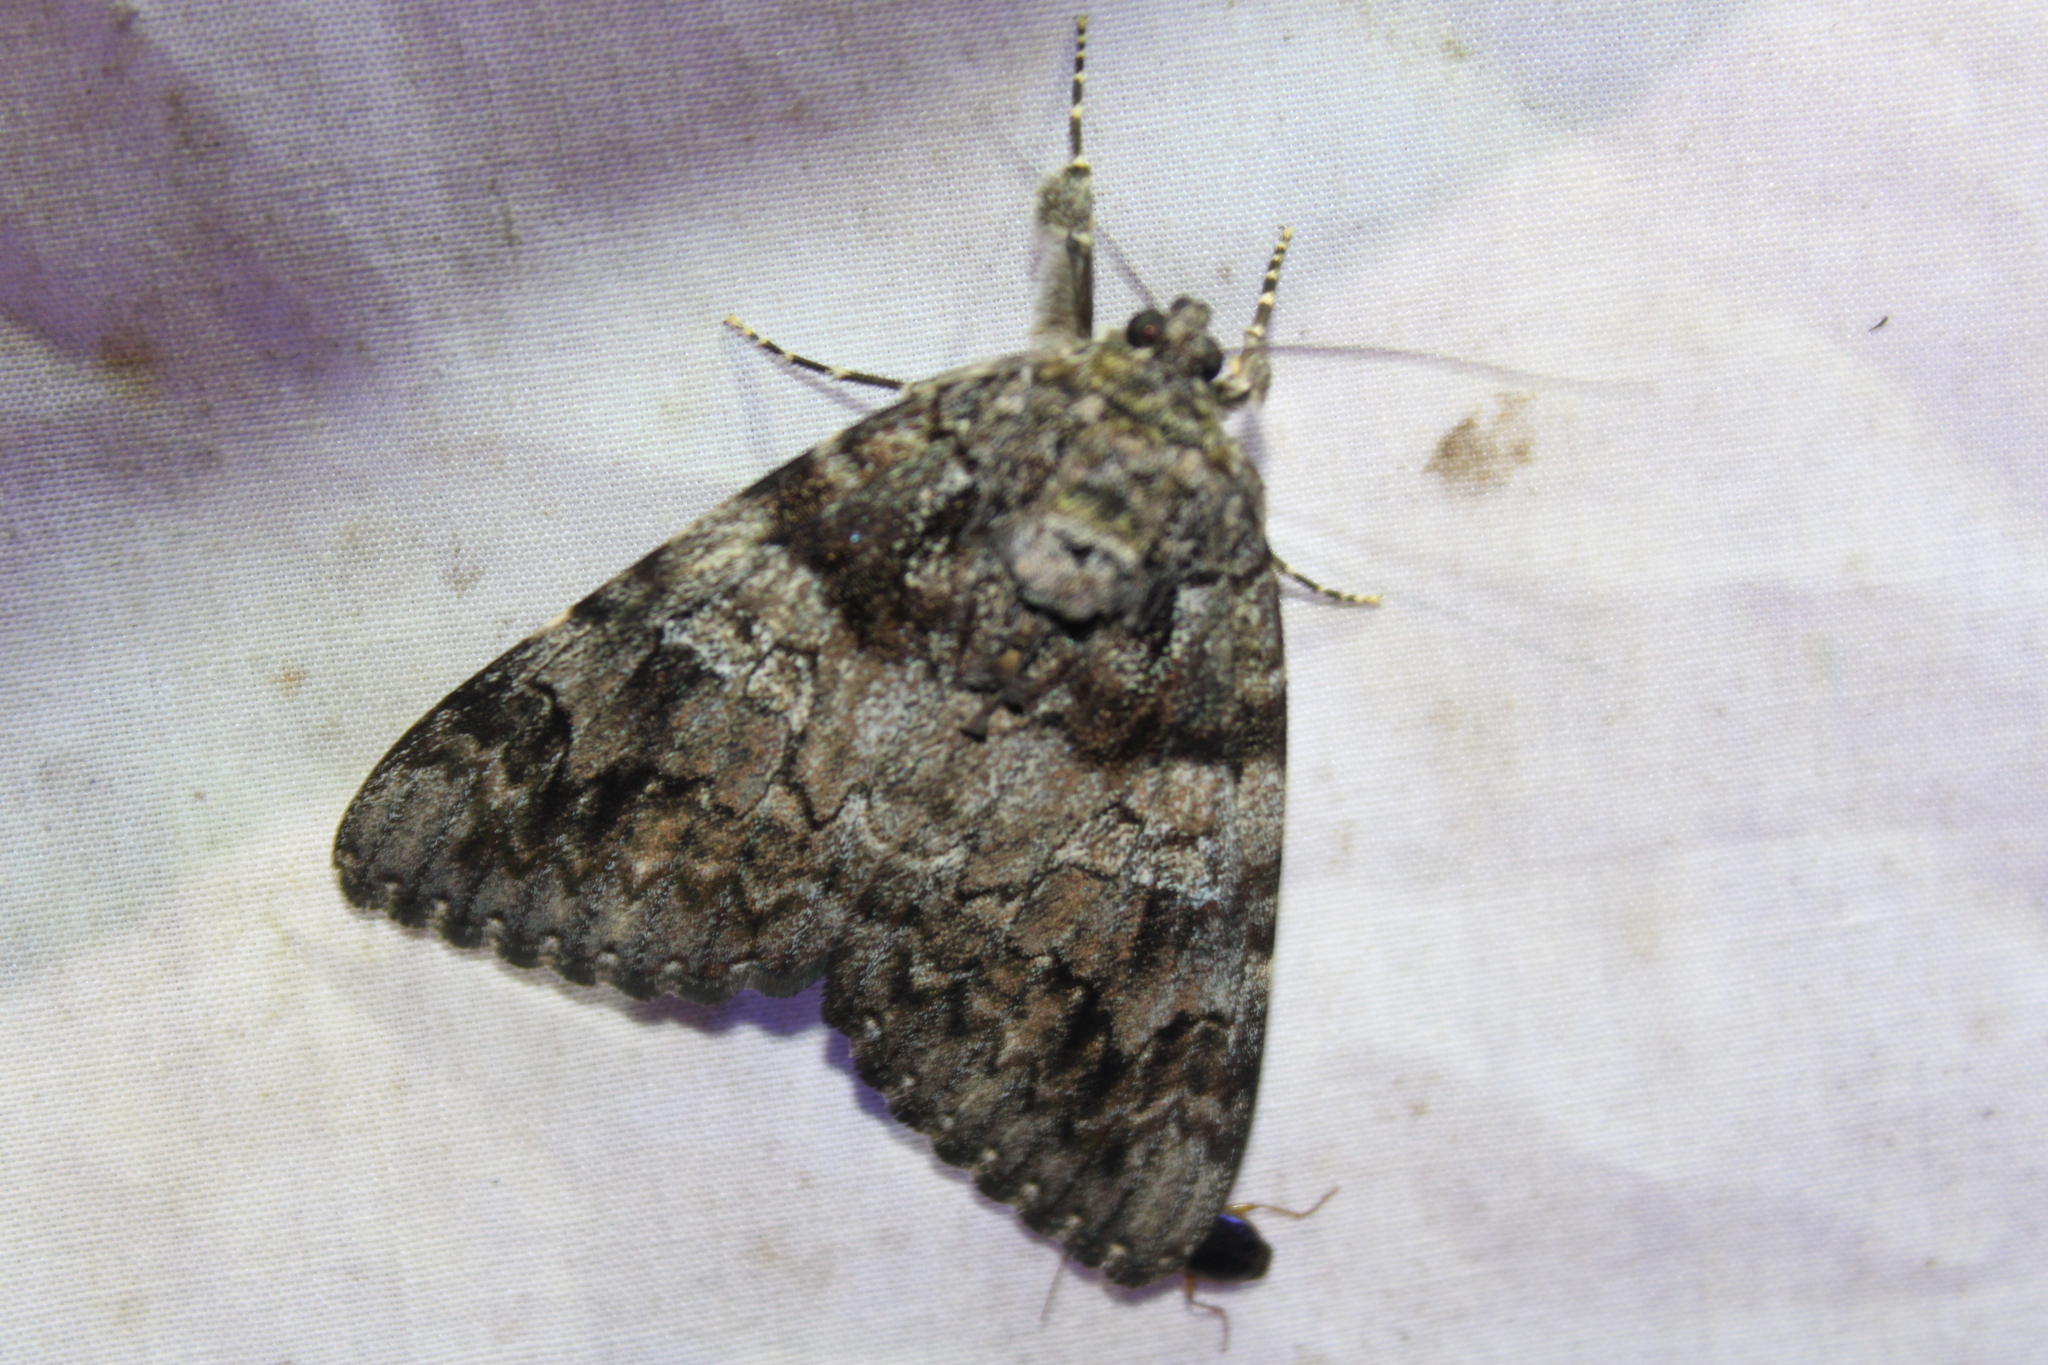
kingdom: Animalia
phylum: Arthropoda
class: Insecta
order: Lepidoptera
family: Erebidae
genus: Catocala
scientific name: Catocala ilia
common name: Ilia underwing
